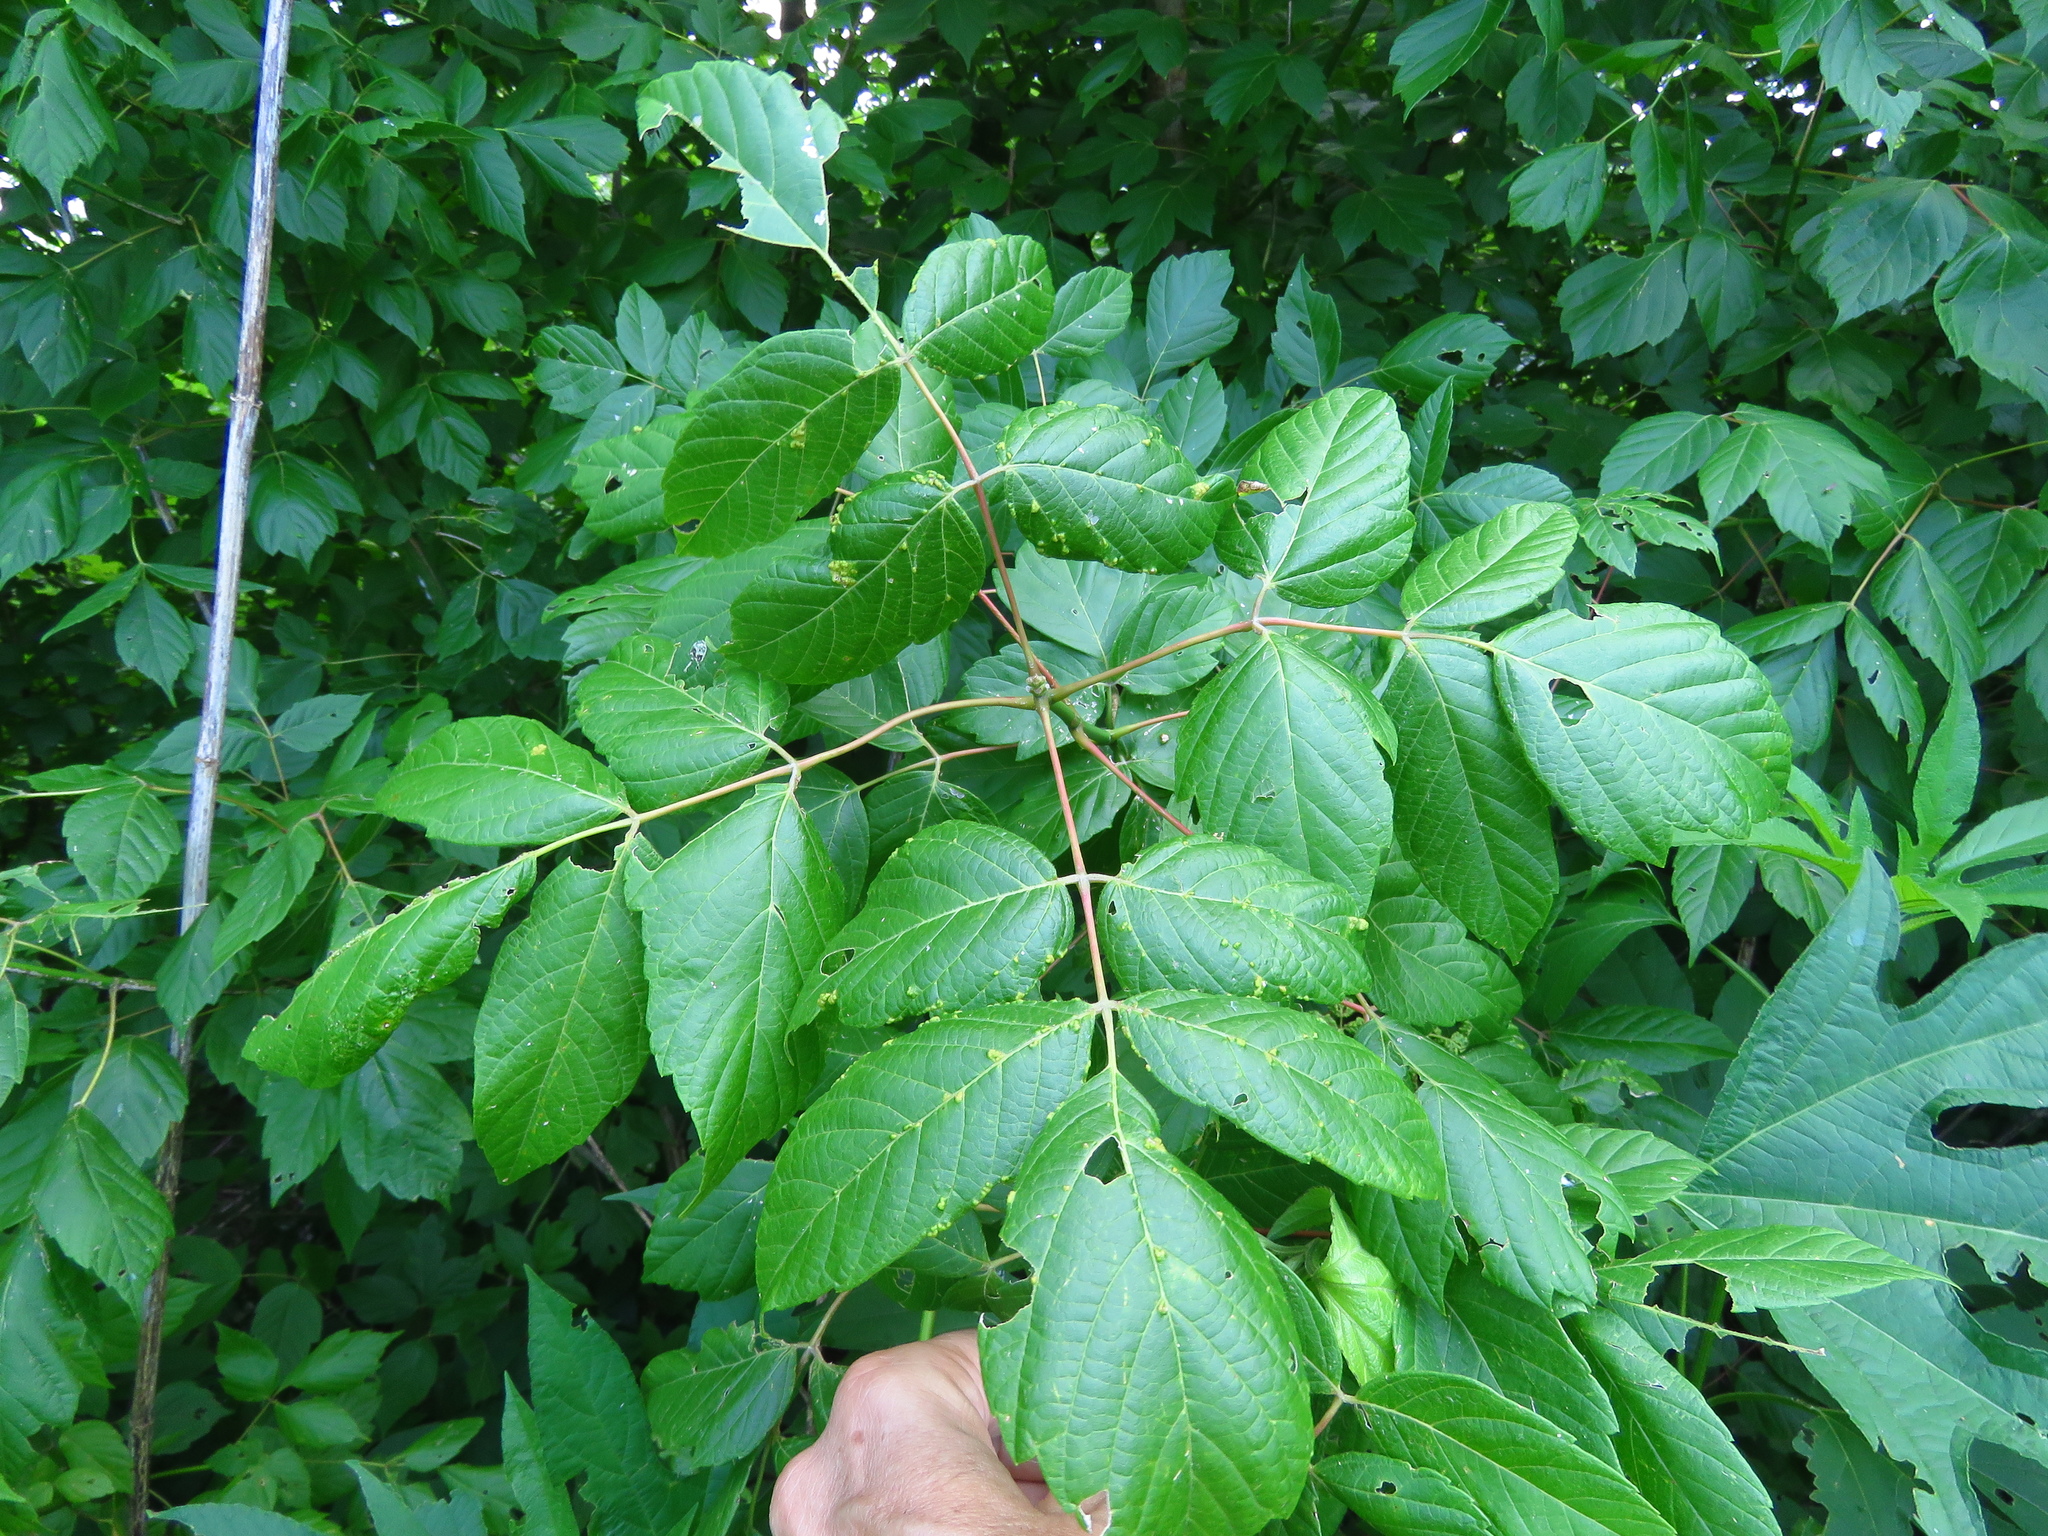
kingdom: Plantae
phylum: Tracheophyta
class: Magnoliopsida
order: Sapindales
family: Sapindaceae
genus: Acer
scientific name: Acer negundo
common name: Ashleaf maple
